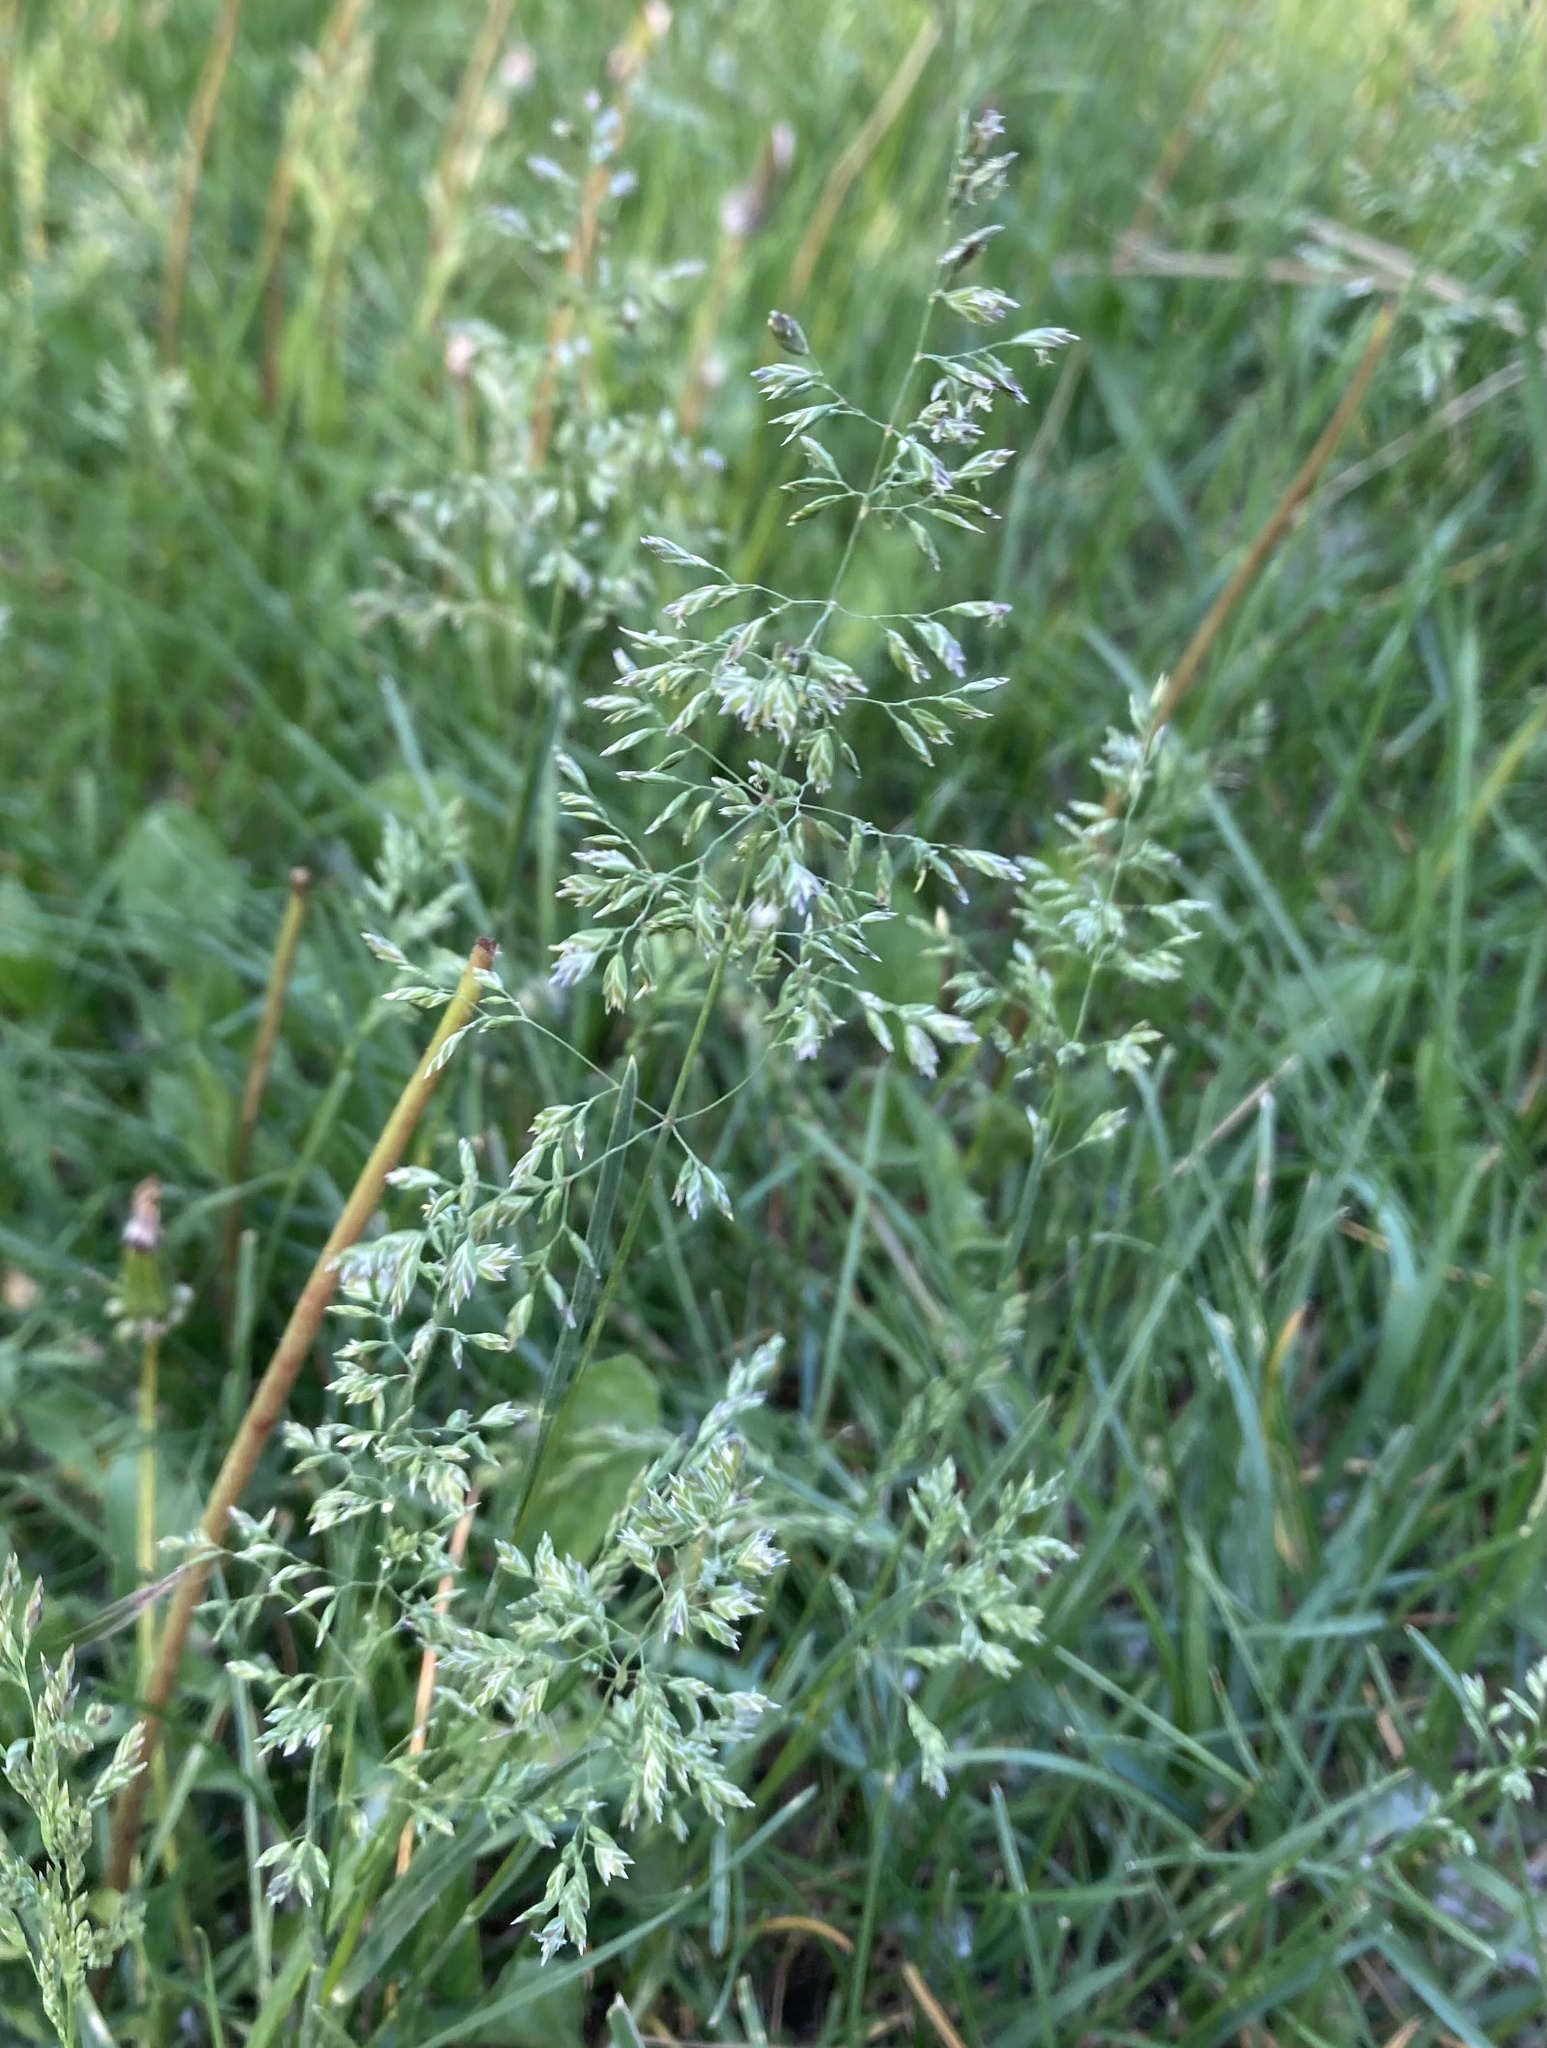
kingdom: Plantae
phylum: Tracheophyta
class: Liliopsida
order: Poales
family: Poaceae
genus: Poa
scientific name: Poa pratensis
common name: Kentucky bluegrass
